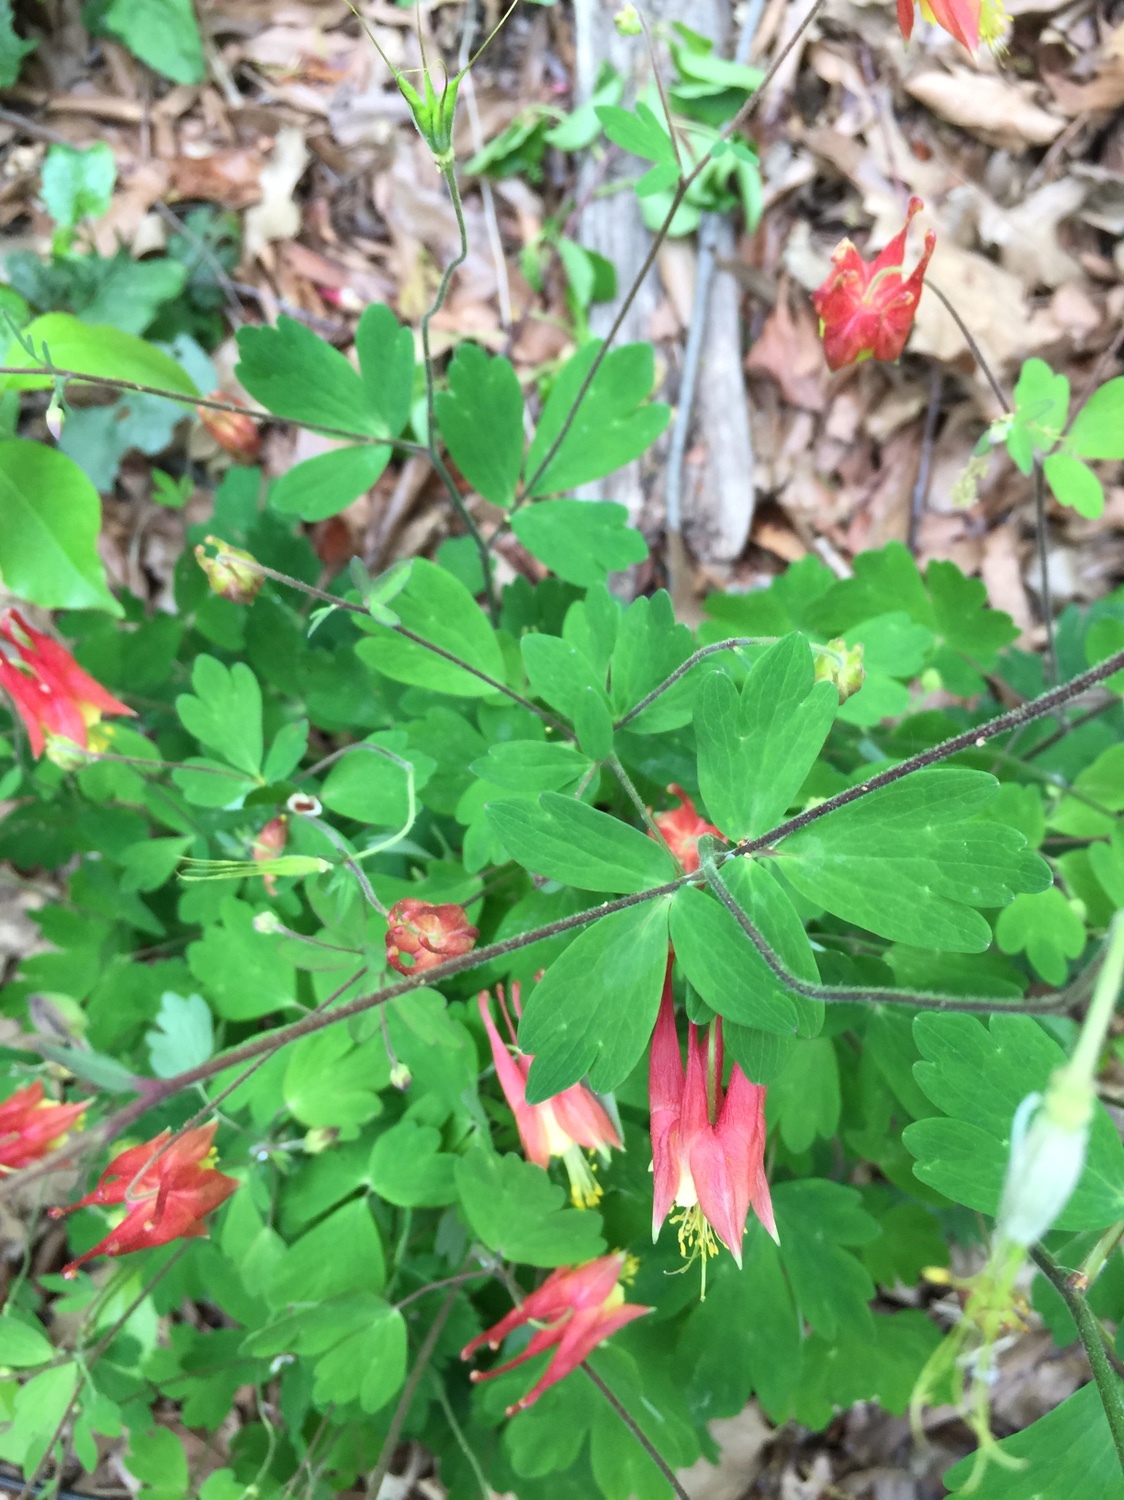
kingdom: Plantae
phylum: Tracheophyta
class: Magnoliopsida
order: Ranunculales
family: Ranunculaceae
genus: Aquilegia
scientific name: Aquilegia canadensis
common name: American columbine
